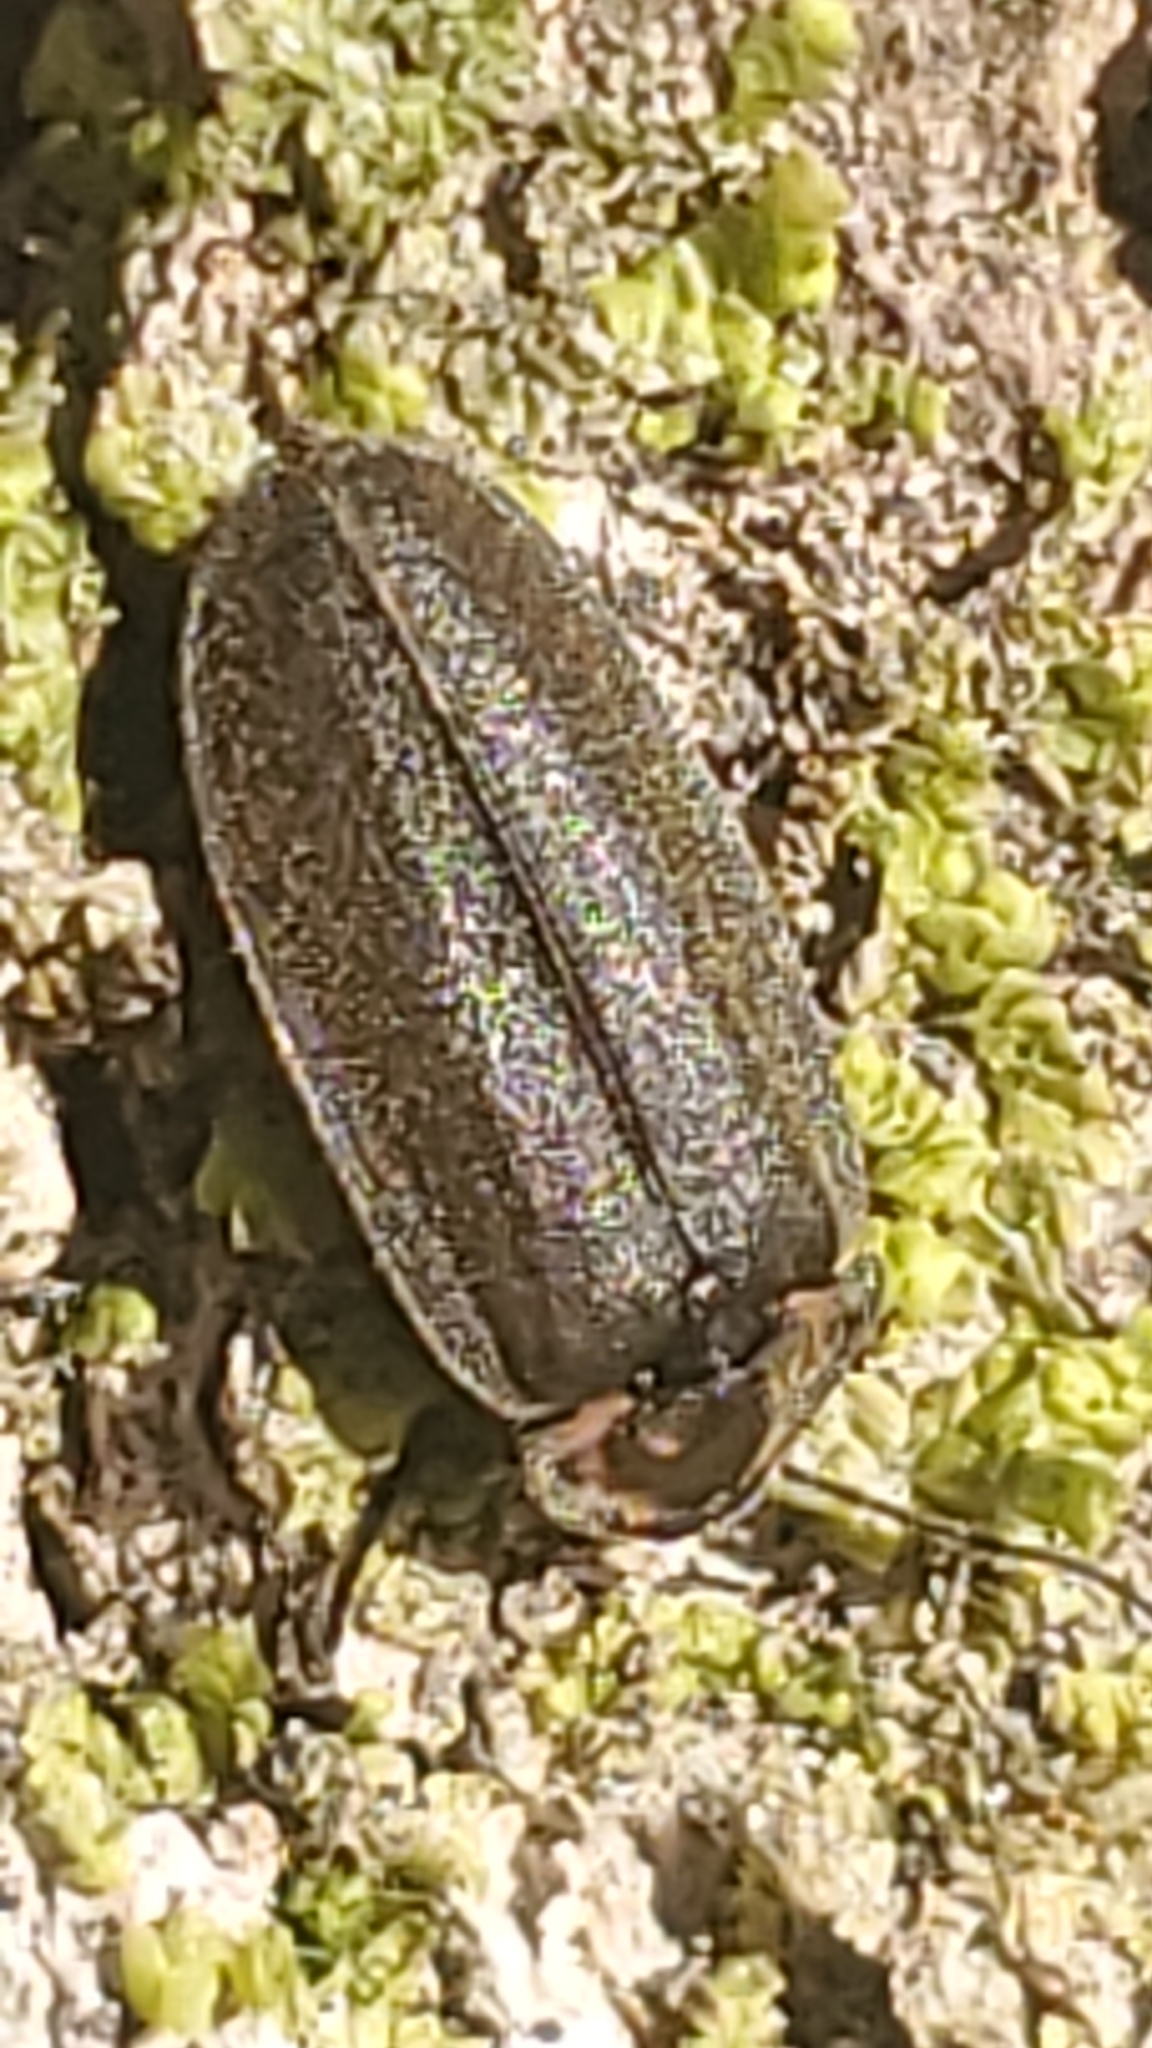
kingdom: Animalia
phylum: Arthropoda
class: Insecta
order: Coleoptera
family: Lampyridae
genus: Photinus
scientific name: Photinus corrusca
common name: Winter firefly
